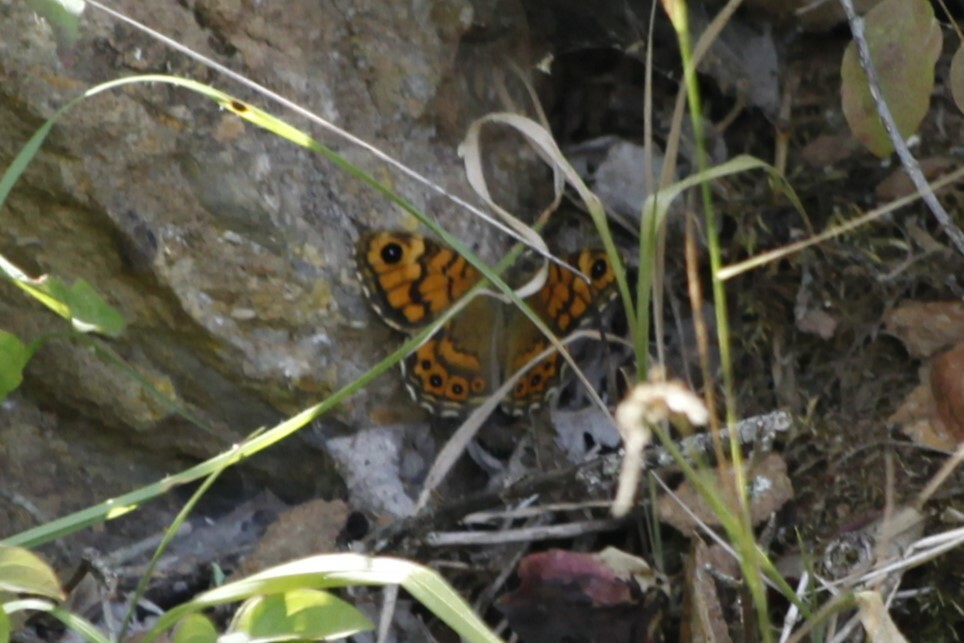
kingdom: Animalia
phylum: Arthropoda
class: Insecta
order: Lepidoptera
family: Nymphalidae
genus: Pararge
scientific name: Pararge Lasiommata megera
